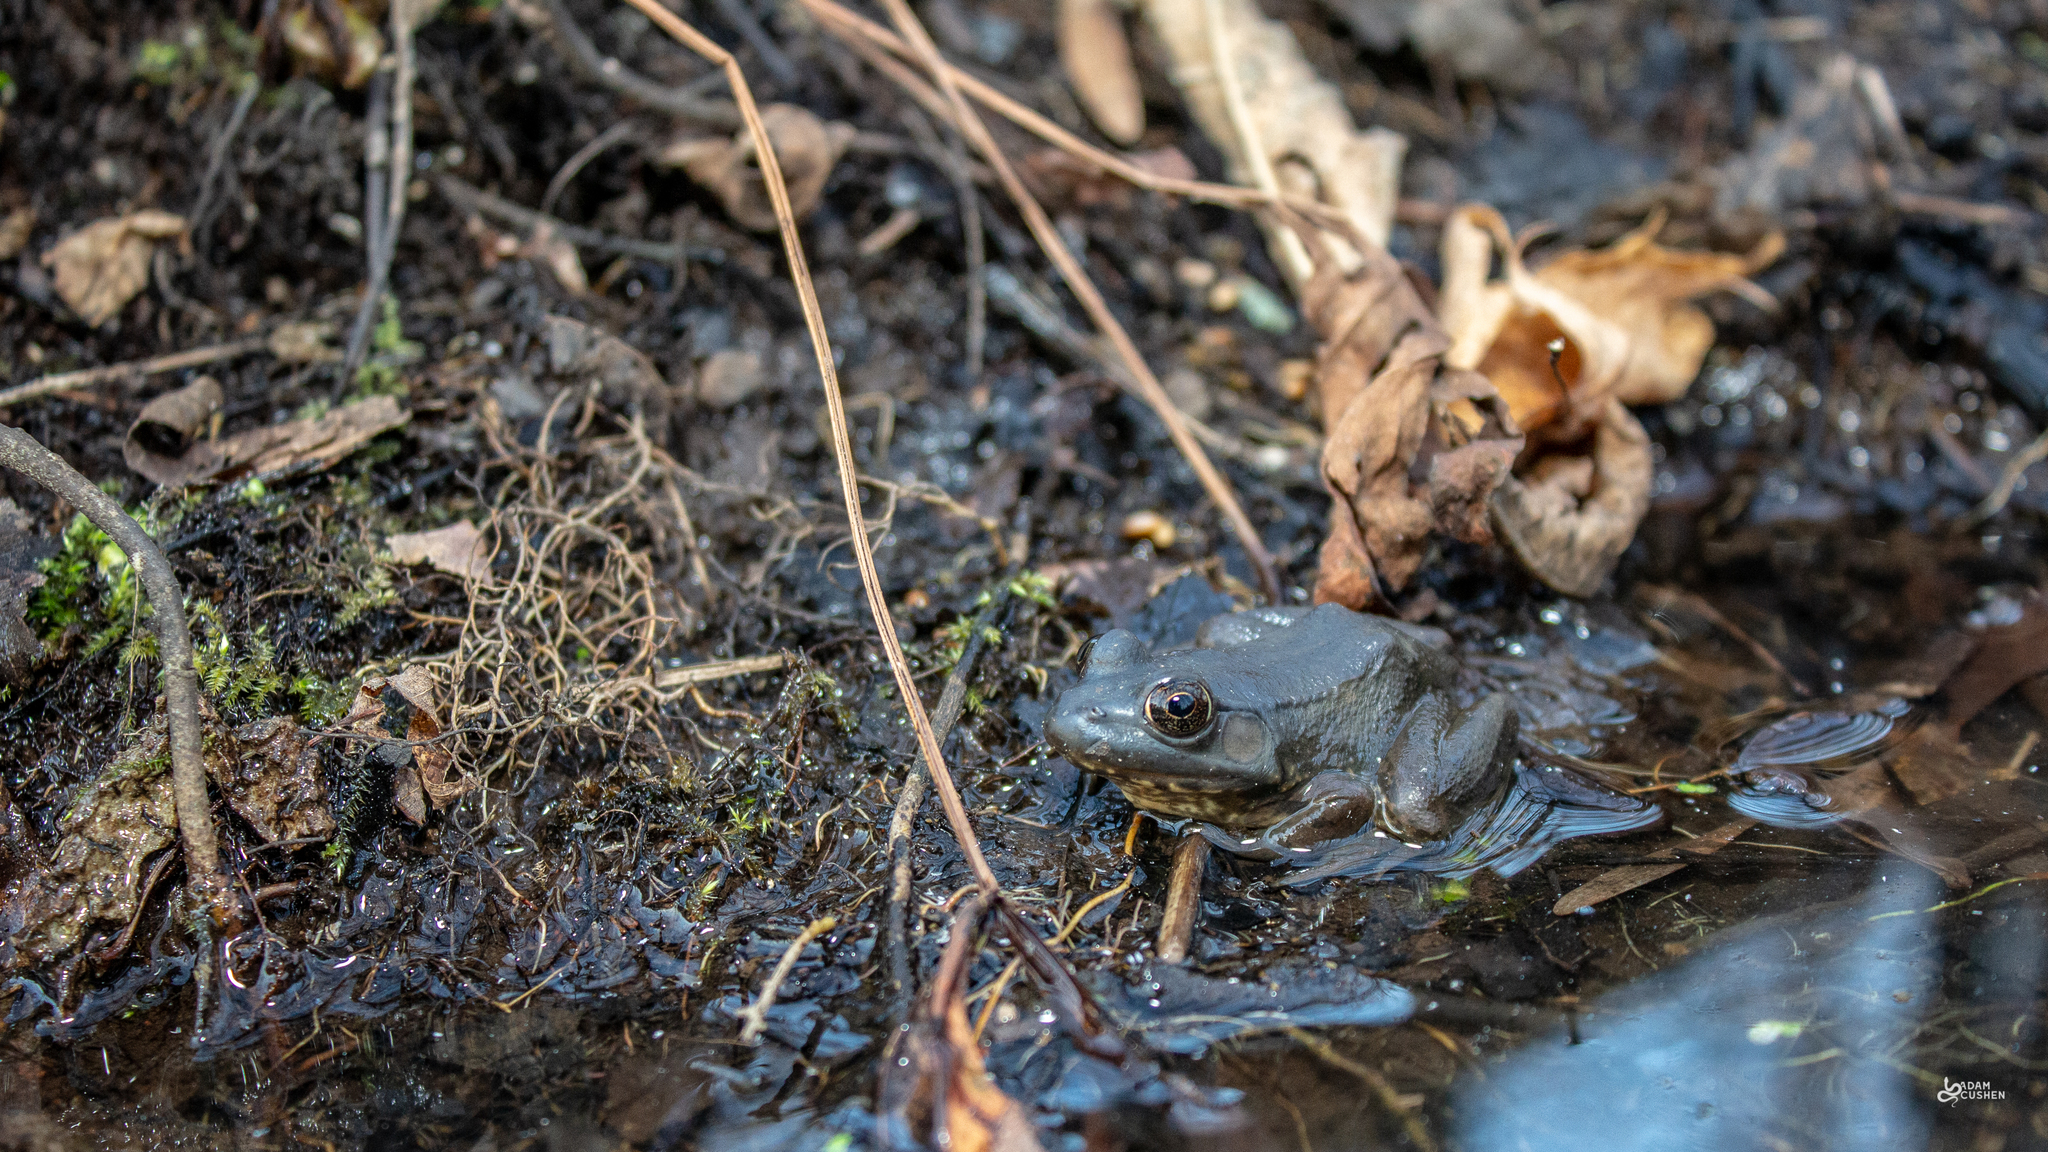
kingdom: Animalia
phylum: Chordata
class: Amphibia
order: Anura
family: Ranidae
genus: Lithobates
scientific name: Lithobates clamitans
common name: Green frog
